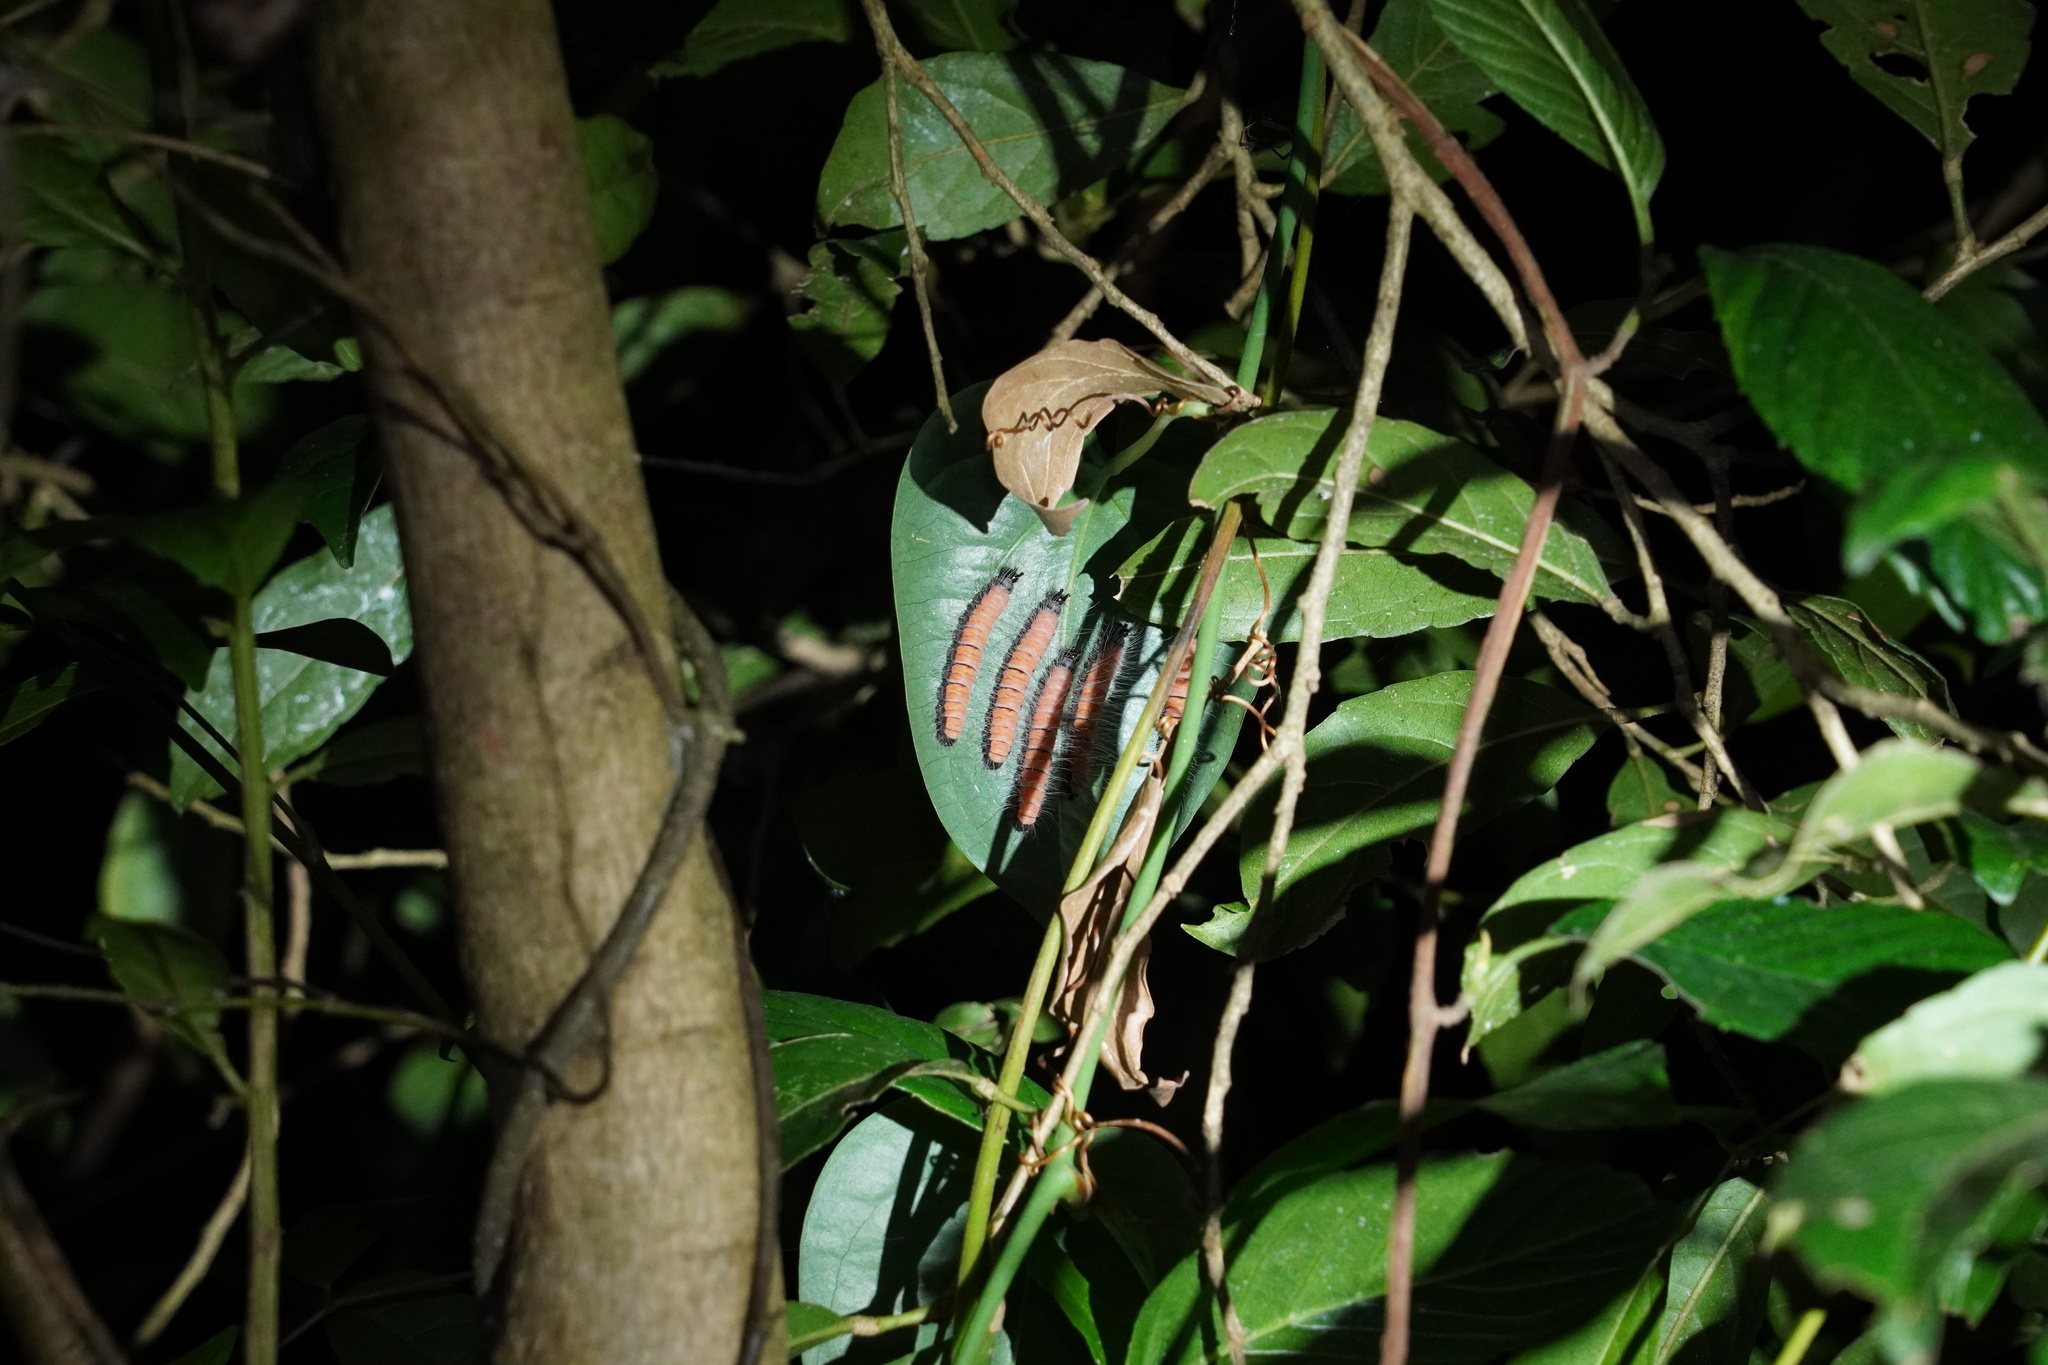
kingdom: Animalia
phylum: Arthropoda
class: Insecta
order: Lepidoptera
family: Nymphalidae
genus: Faunis
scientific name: Faunis eumeus
